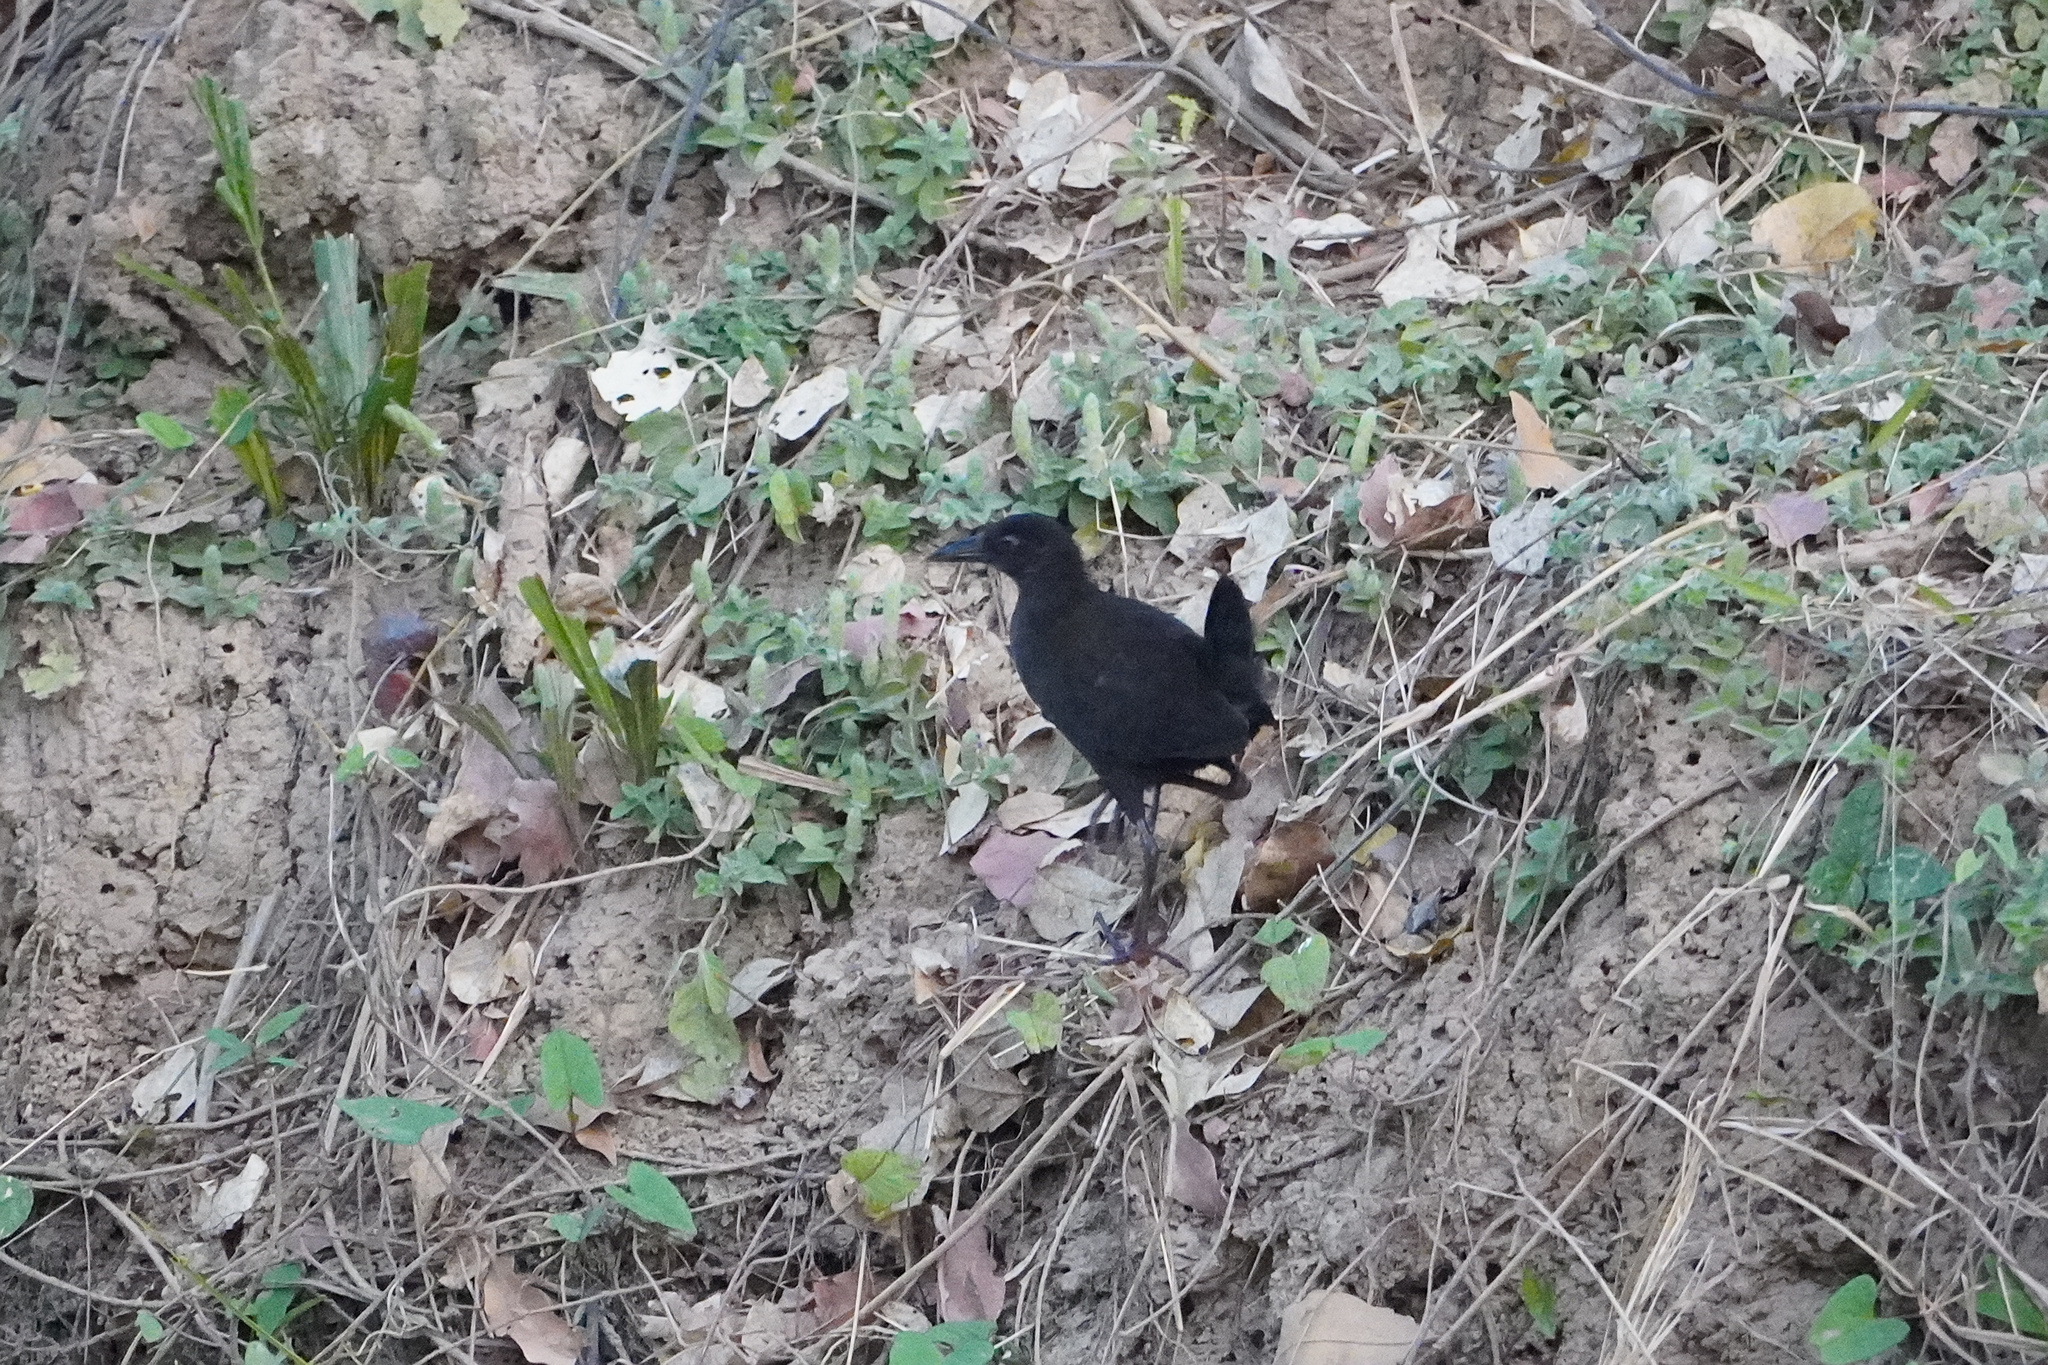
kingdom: Animalia
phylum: Chordata
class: Aves
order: Gruiformes
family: Rallidae
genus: Amaurornis
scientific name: Amaurornis flavirostra
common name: Black crake
